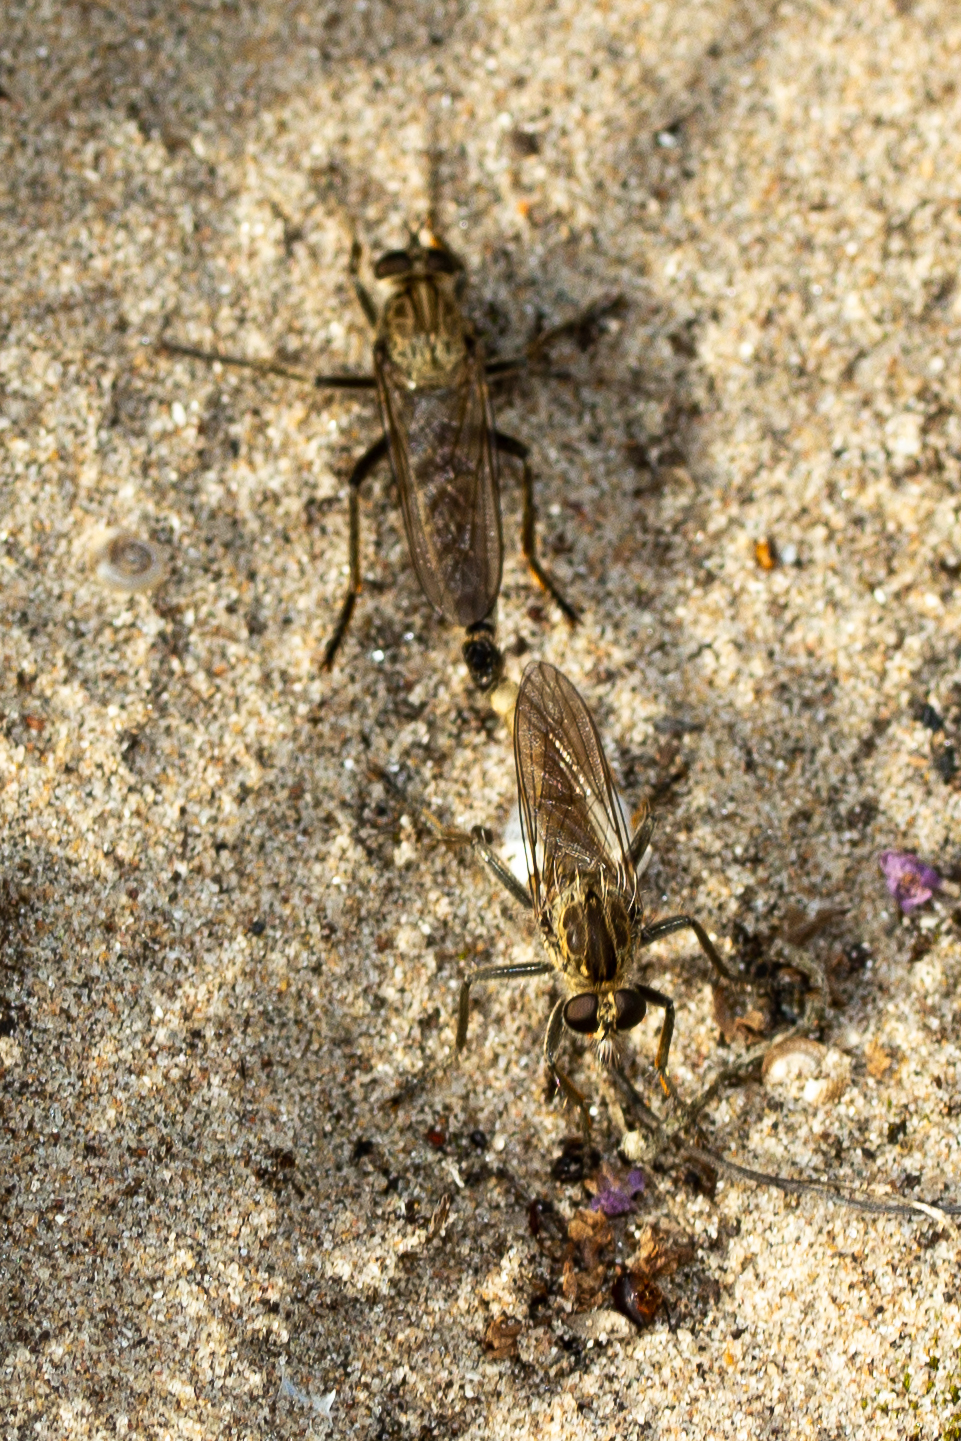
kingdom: Animalia
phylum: Arthropoda
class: Insecta
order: Diptera
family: Asilidae
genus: Philonicus
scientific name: Philonicus albiceps
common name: Dune robberfly
